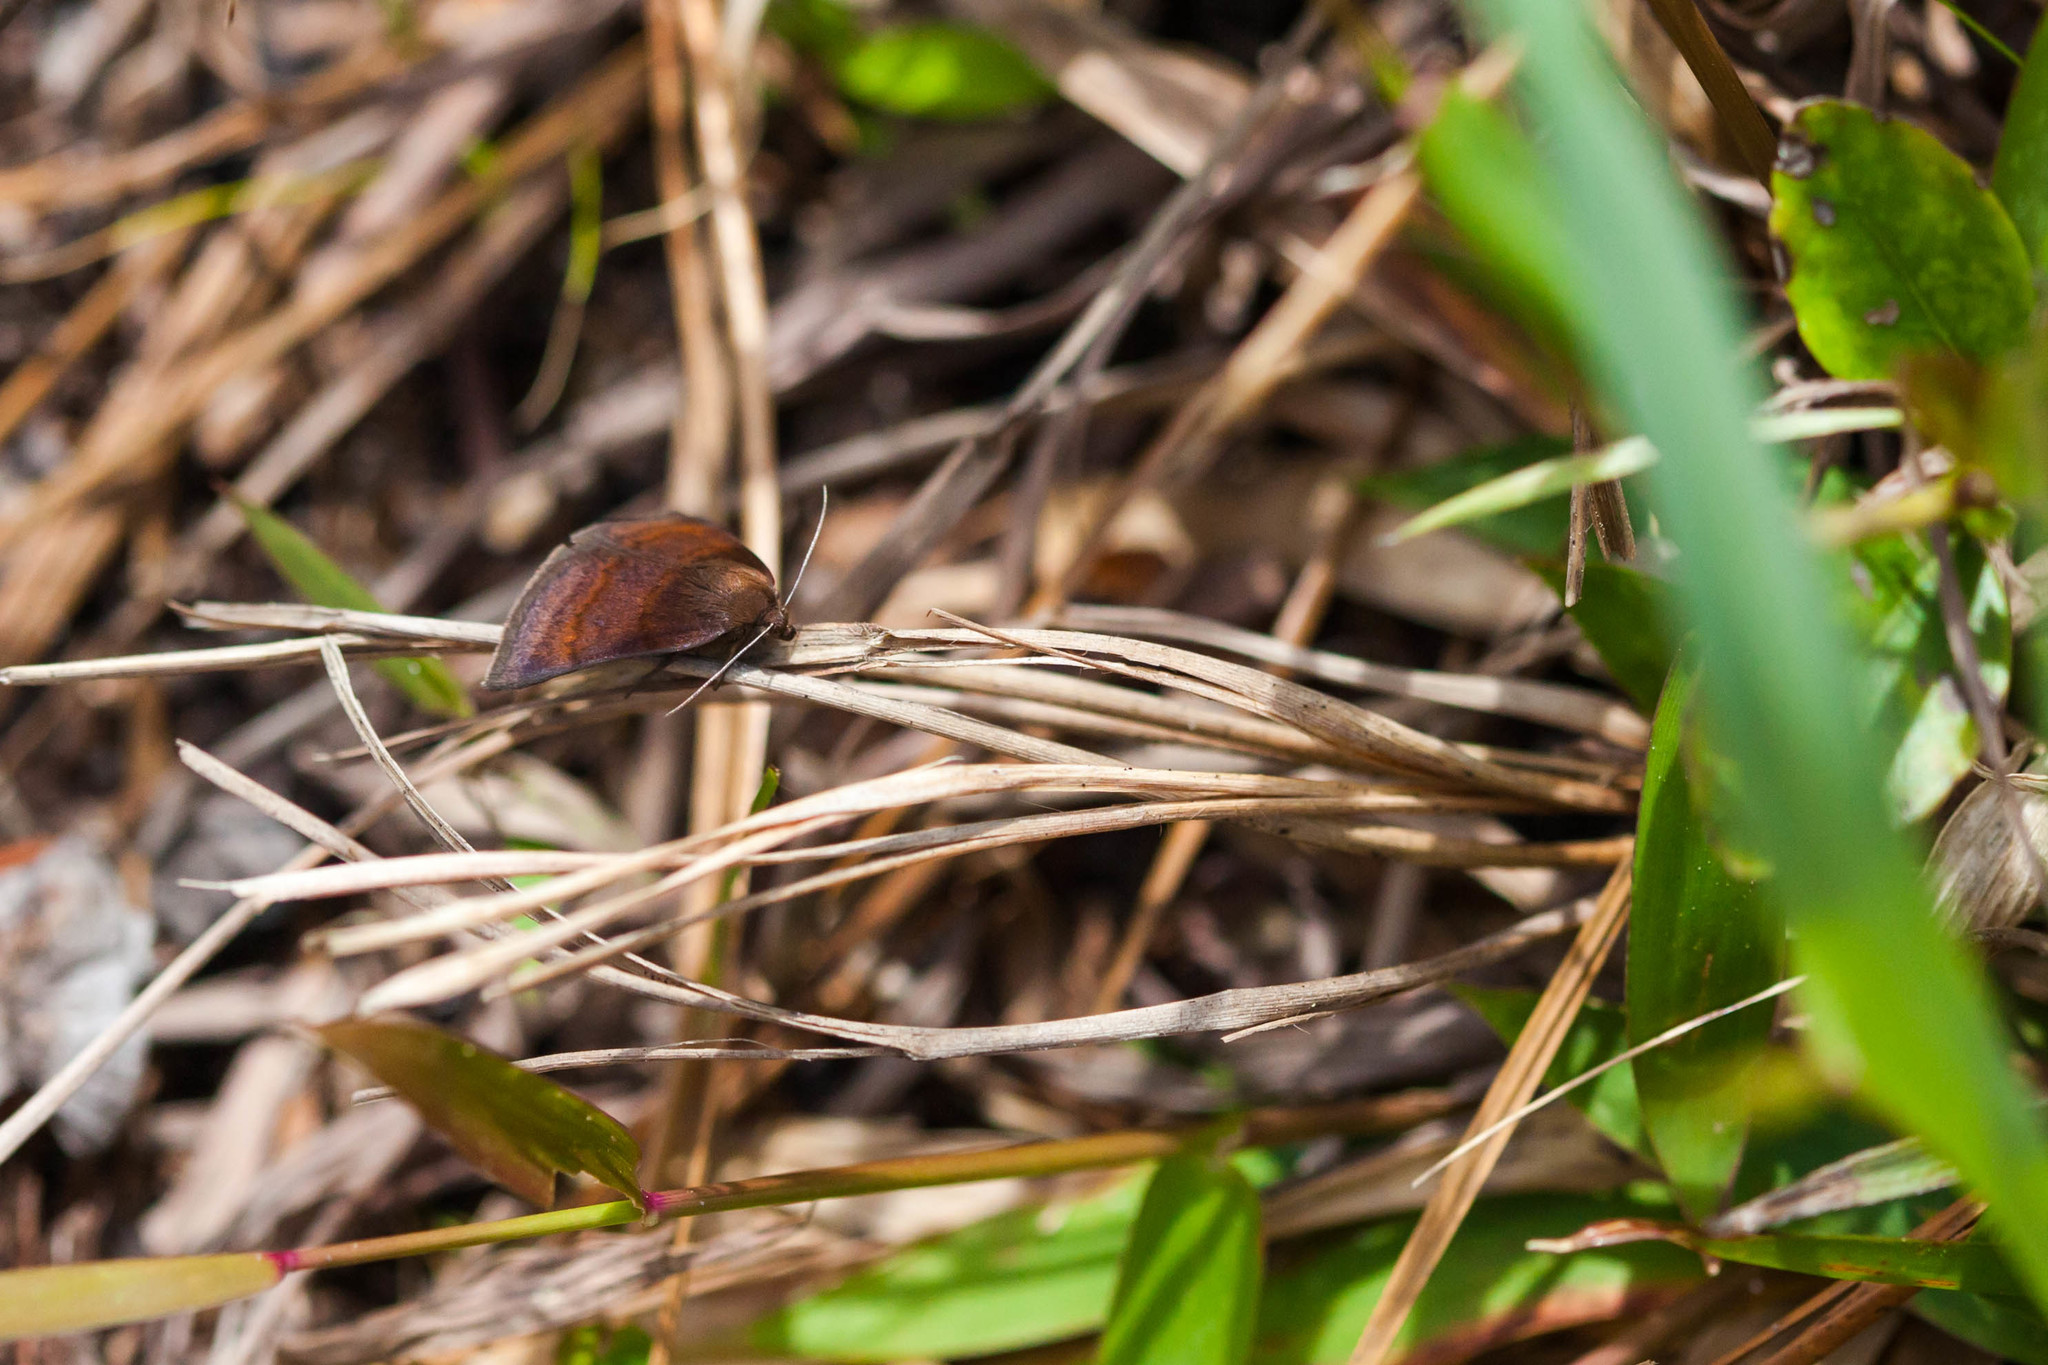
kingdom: Animalia
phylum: Arthropoda
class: Insecta
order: Lepidoptera
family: Erebidae
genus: Argyrostrotis
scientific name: Argyrostrotis deleta
